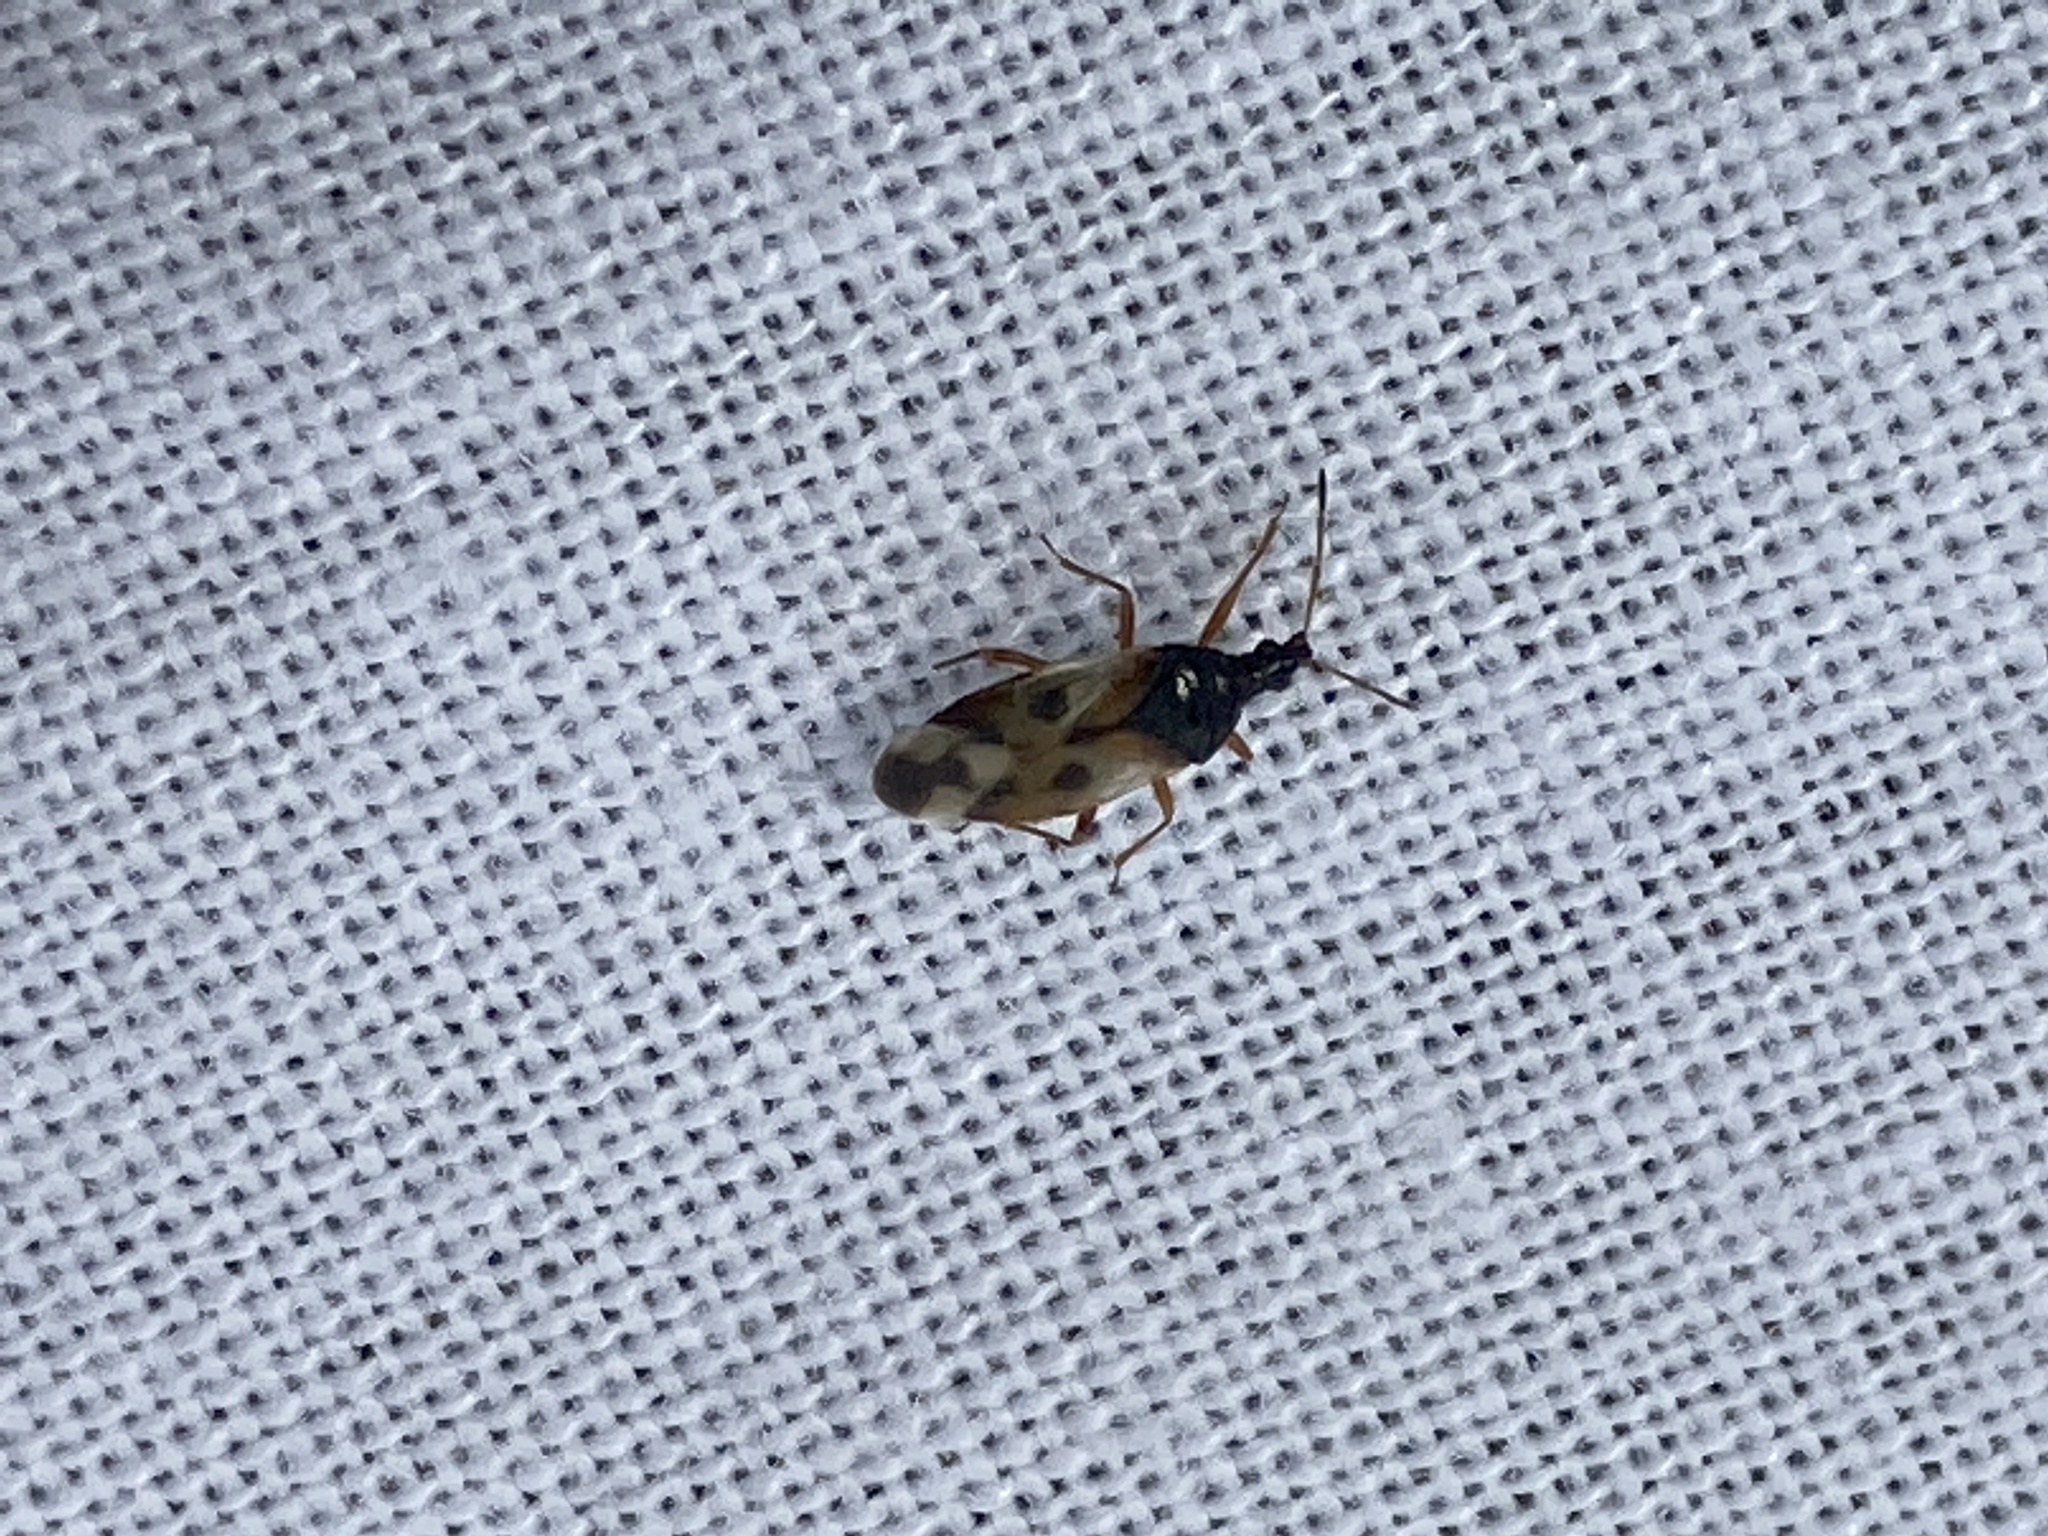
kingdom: Animalia
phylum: Arthropoda
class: Insecta
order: Hemiptera
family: Anthocoridae
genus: Anthocoris
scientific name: Anthocoris nemorum
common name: Minute pirate bug
